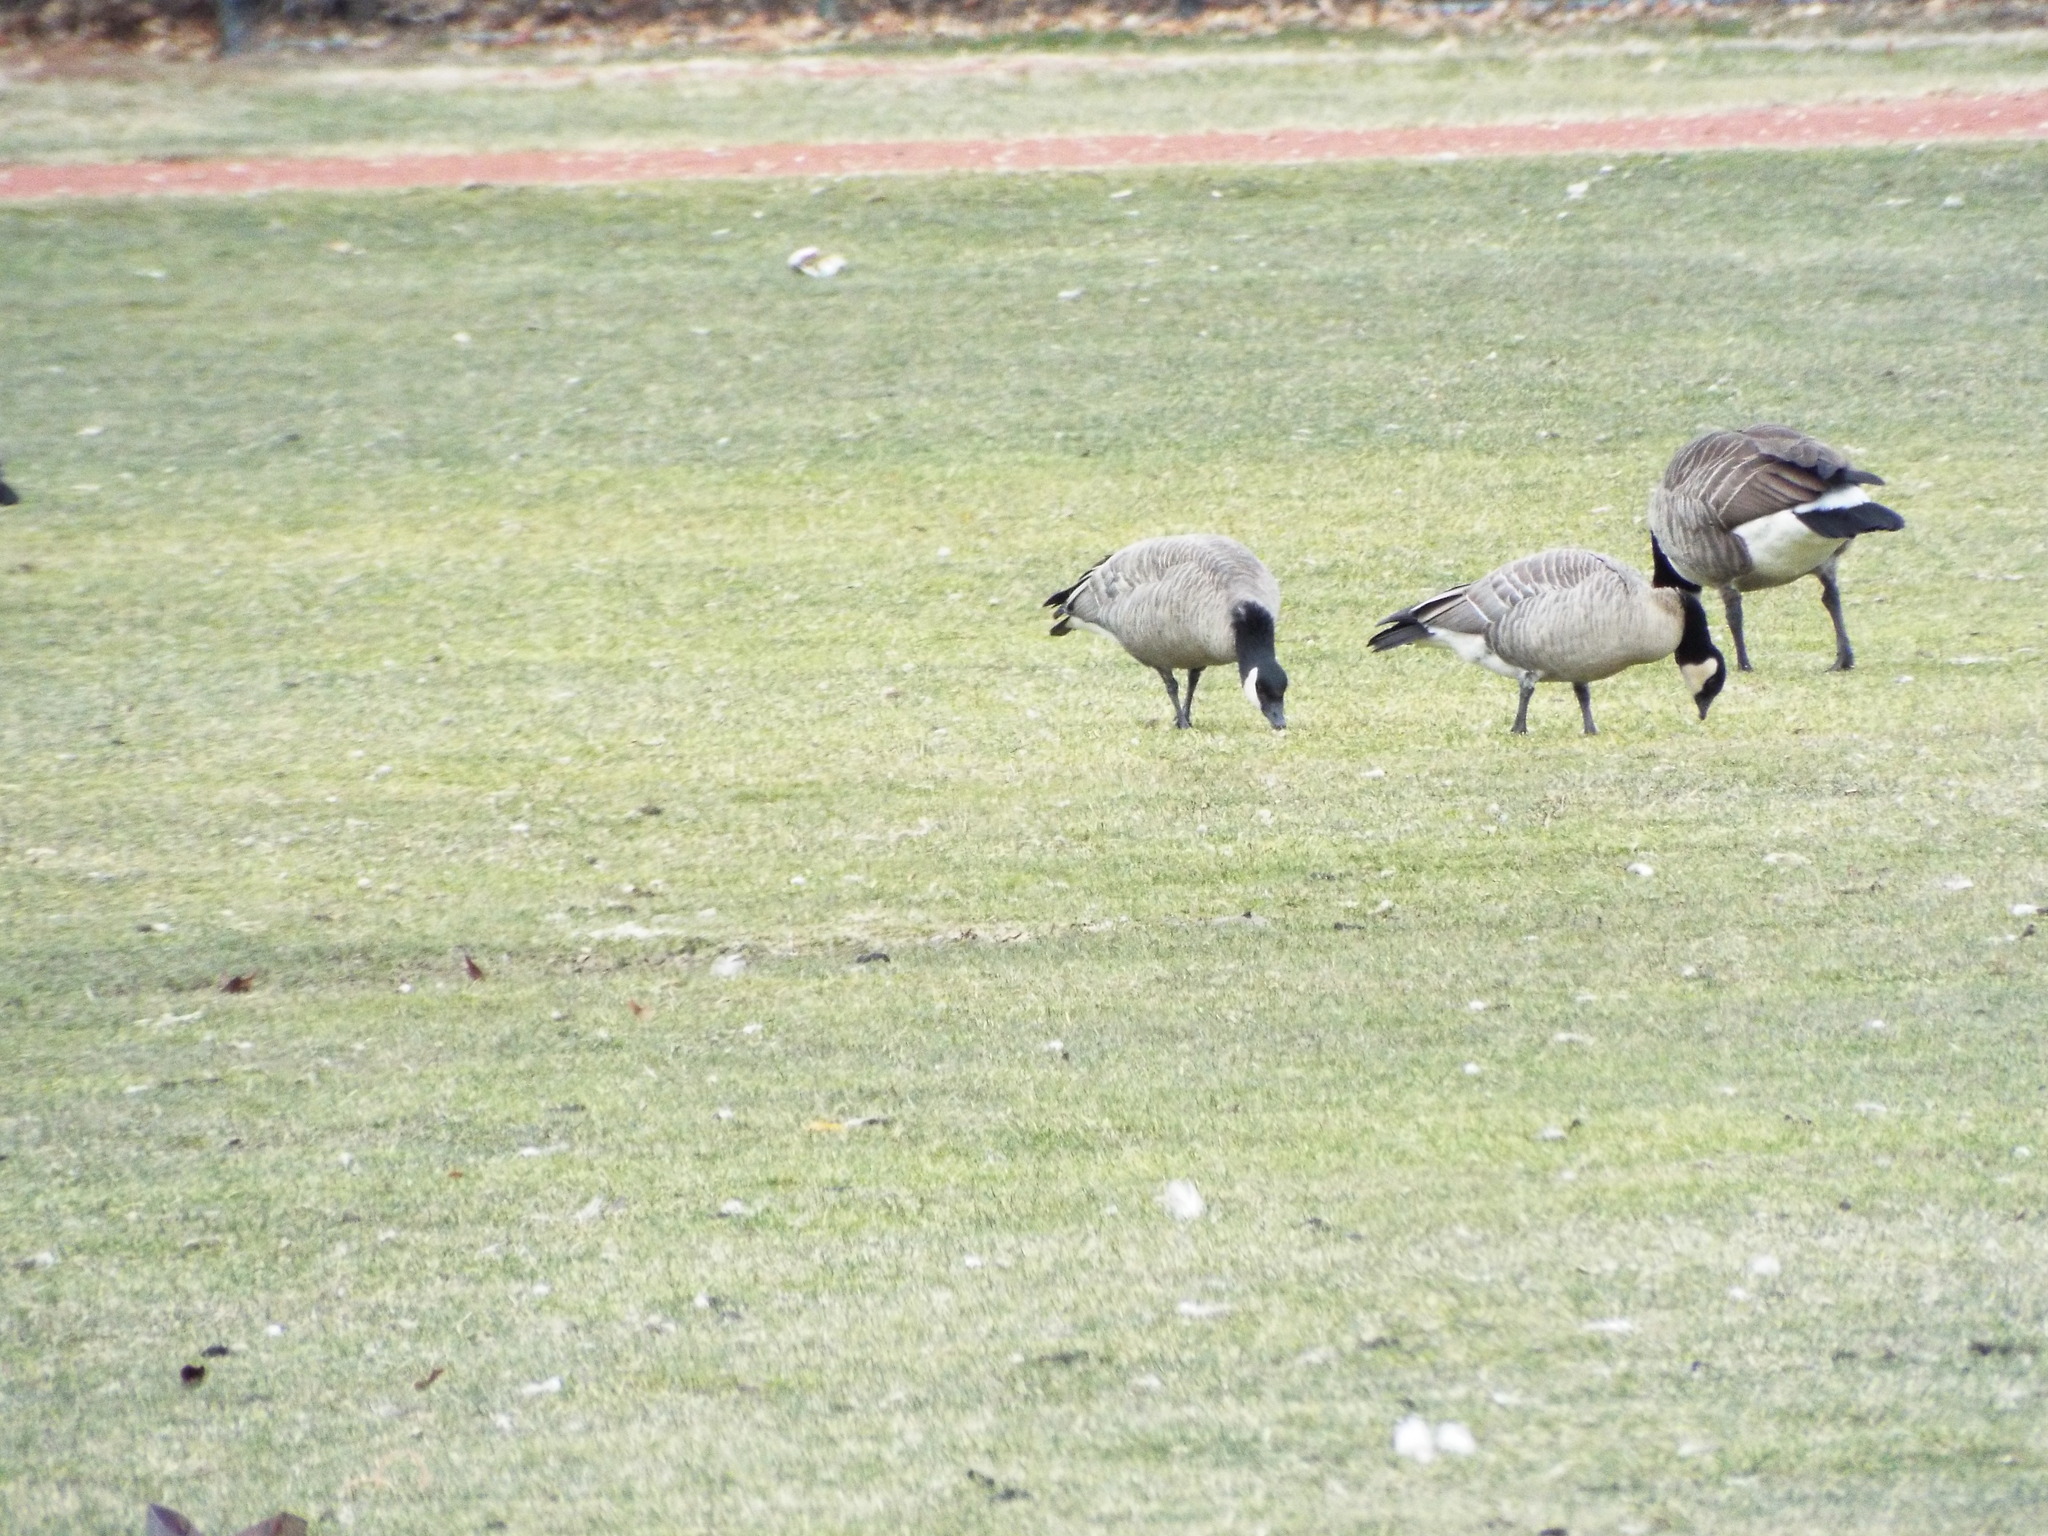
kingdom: Animalia
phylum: Chordata
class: Aves
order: Anseriformes
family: Anatidae
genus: Branta
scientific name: Branta hutchinsii
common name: Cackling goose
